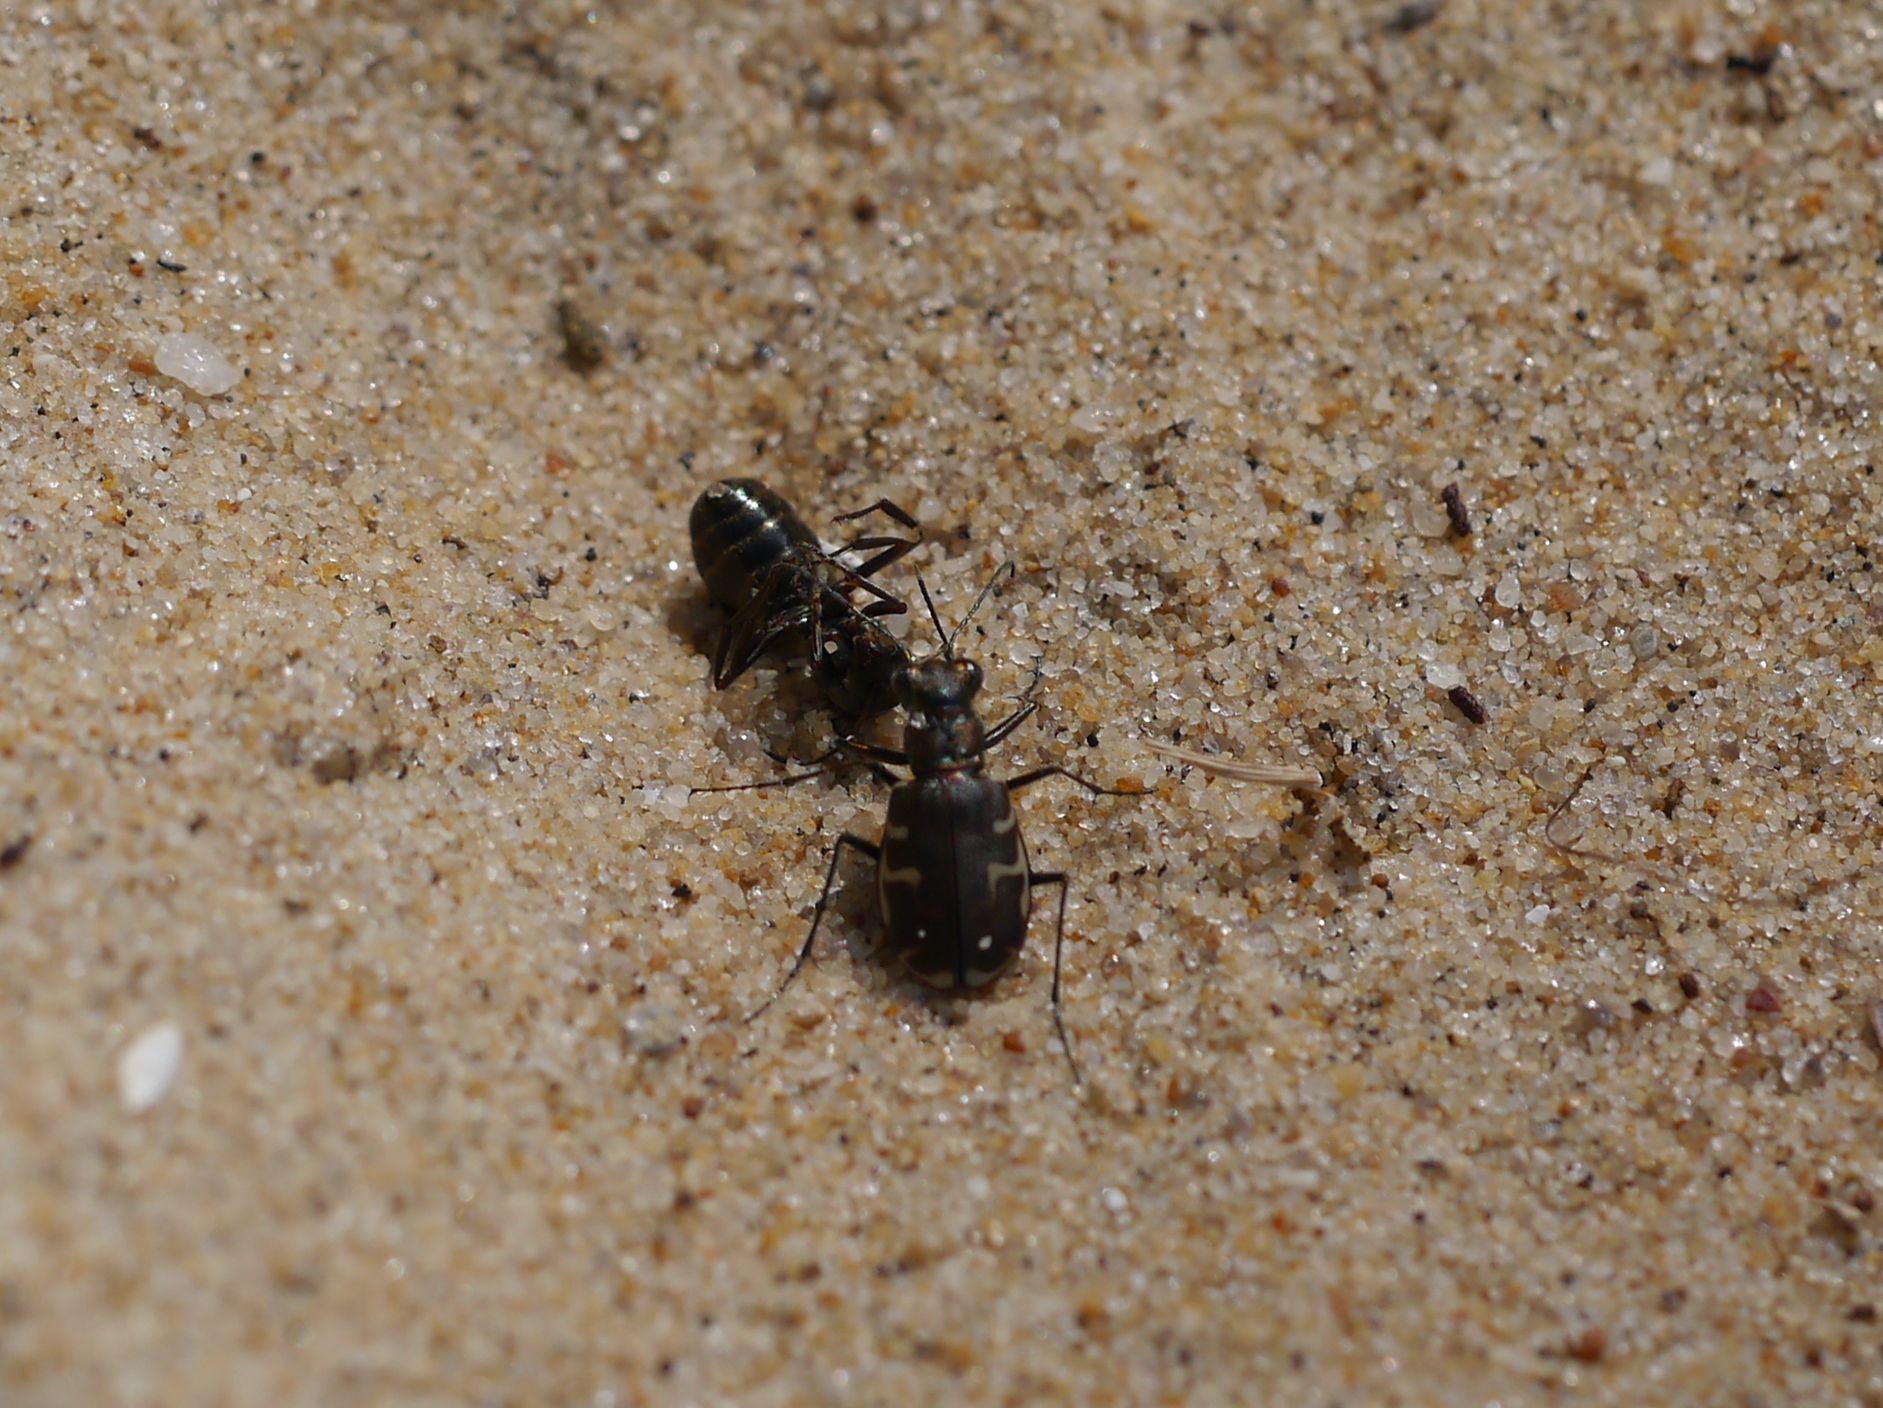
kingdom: Animalia
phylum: Arthropoda
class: Insecta
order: Coleoptera
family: Carabidae
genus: Cicindela
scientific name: Cicindela repanda
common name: Bronzed tiger beetle
